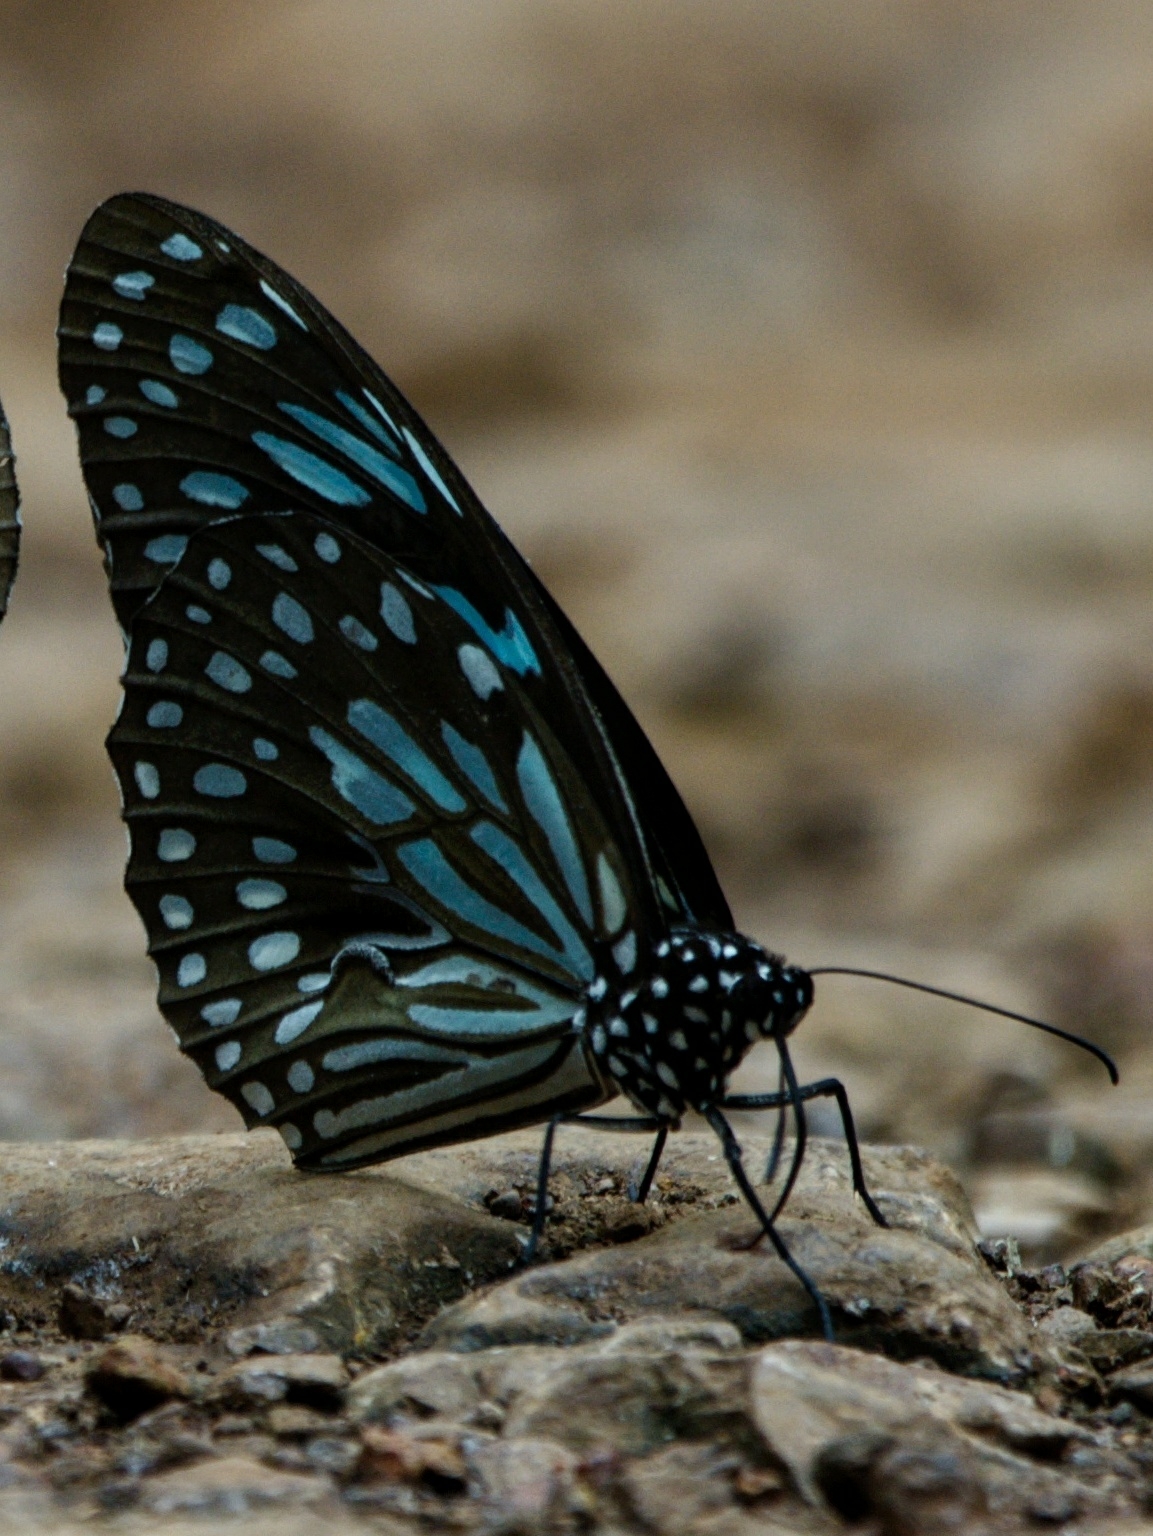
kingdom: Animalia
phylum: Arthropoda
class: Insecta
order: Lepidoptera
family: Nymphalidae
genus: Tirumala
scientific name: Tirumala septentrionis
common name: Dark blue tiger butterfly
